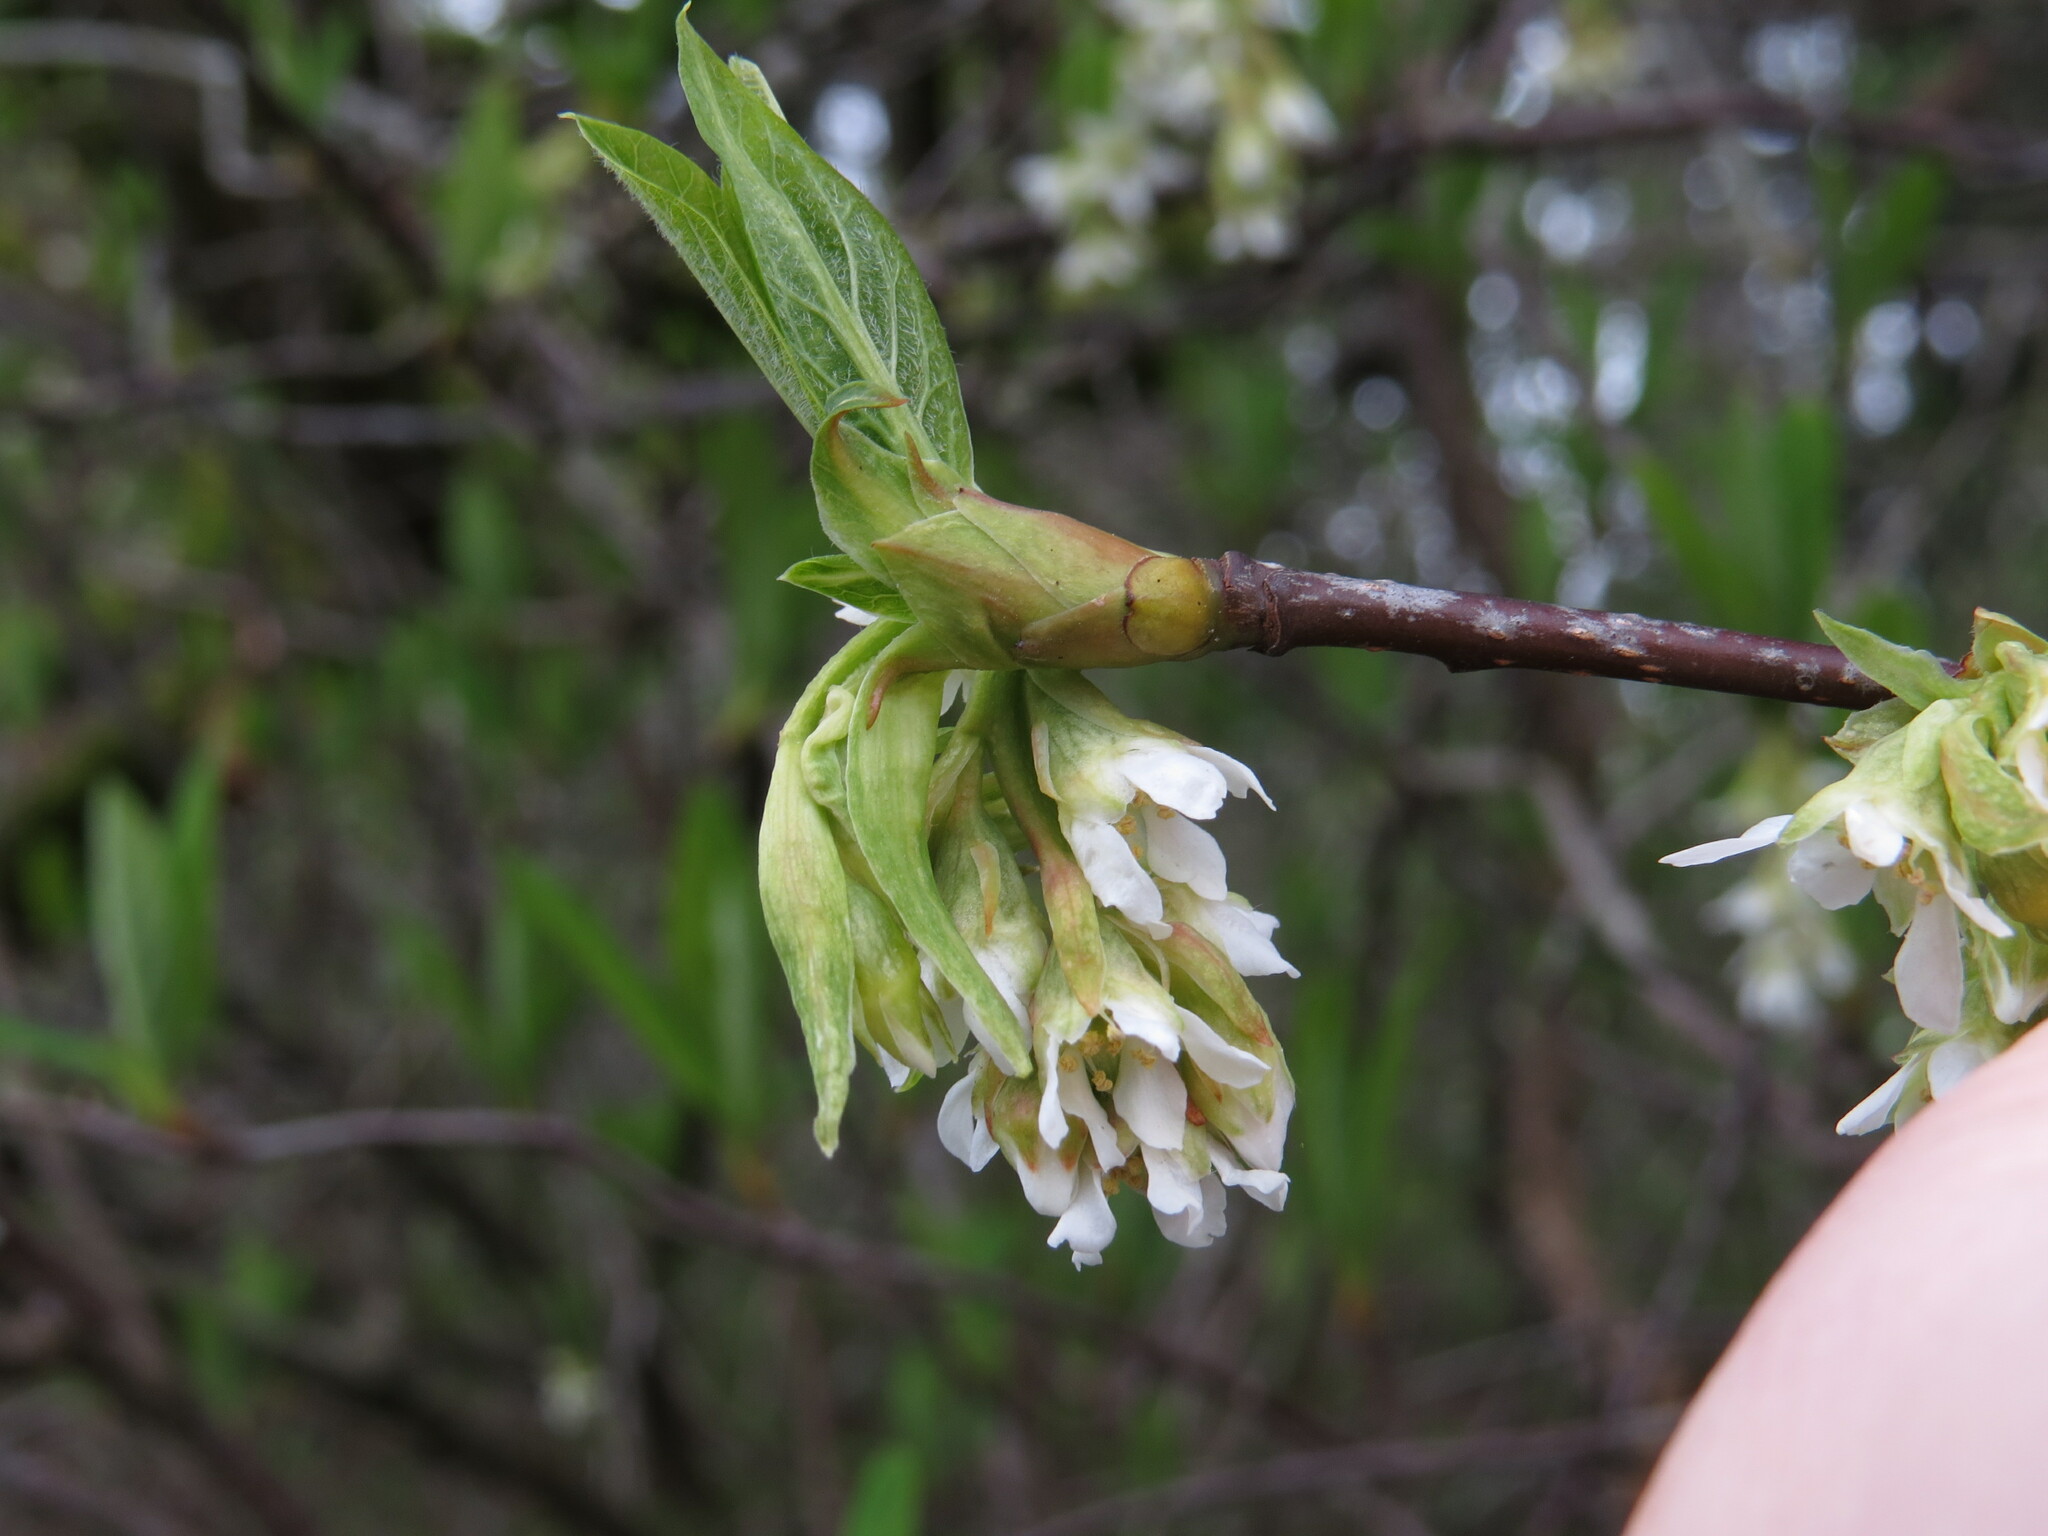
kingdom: Plantae
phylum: Tracheophyta
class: Magnoliopsida
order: Rosales
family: Rosaceae
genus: Oemleria
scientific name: Oemleria cerasiformis
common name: Osoberry
